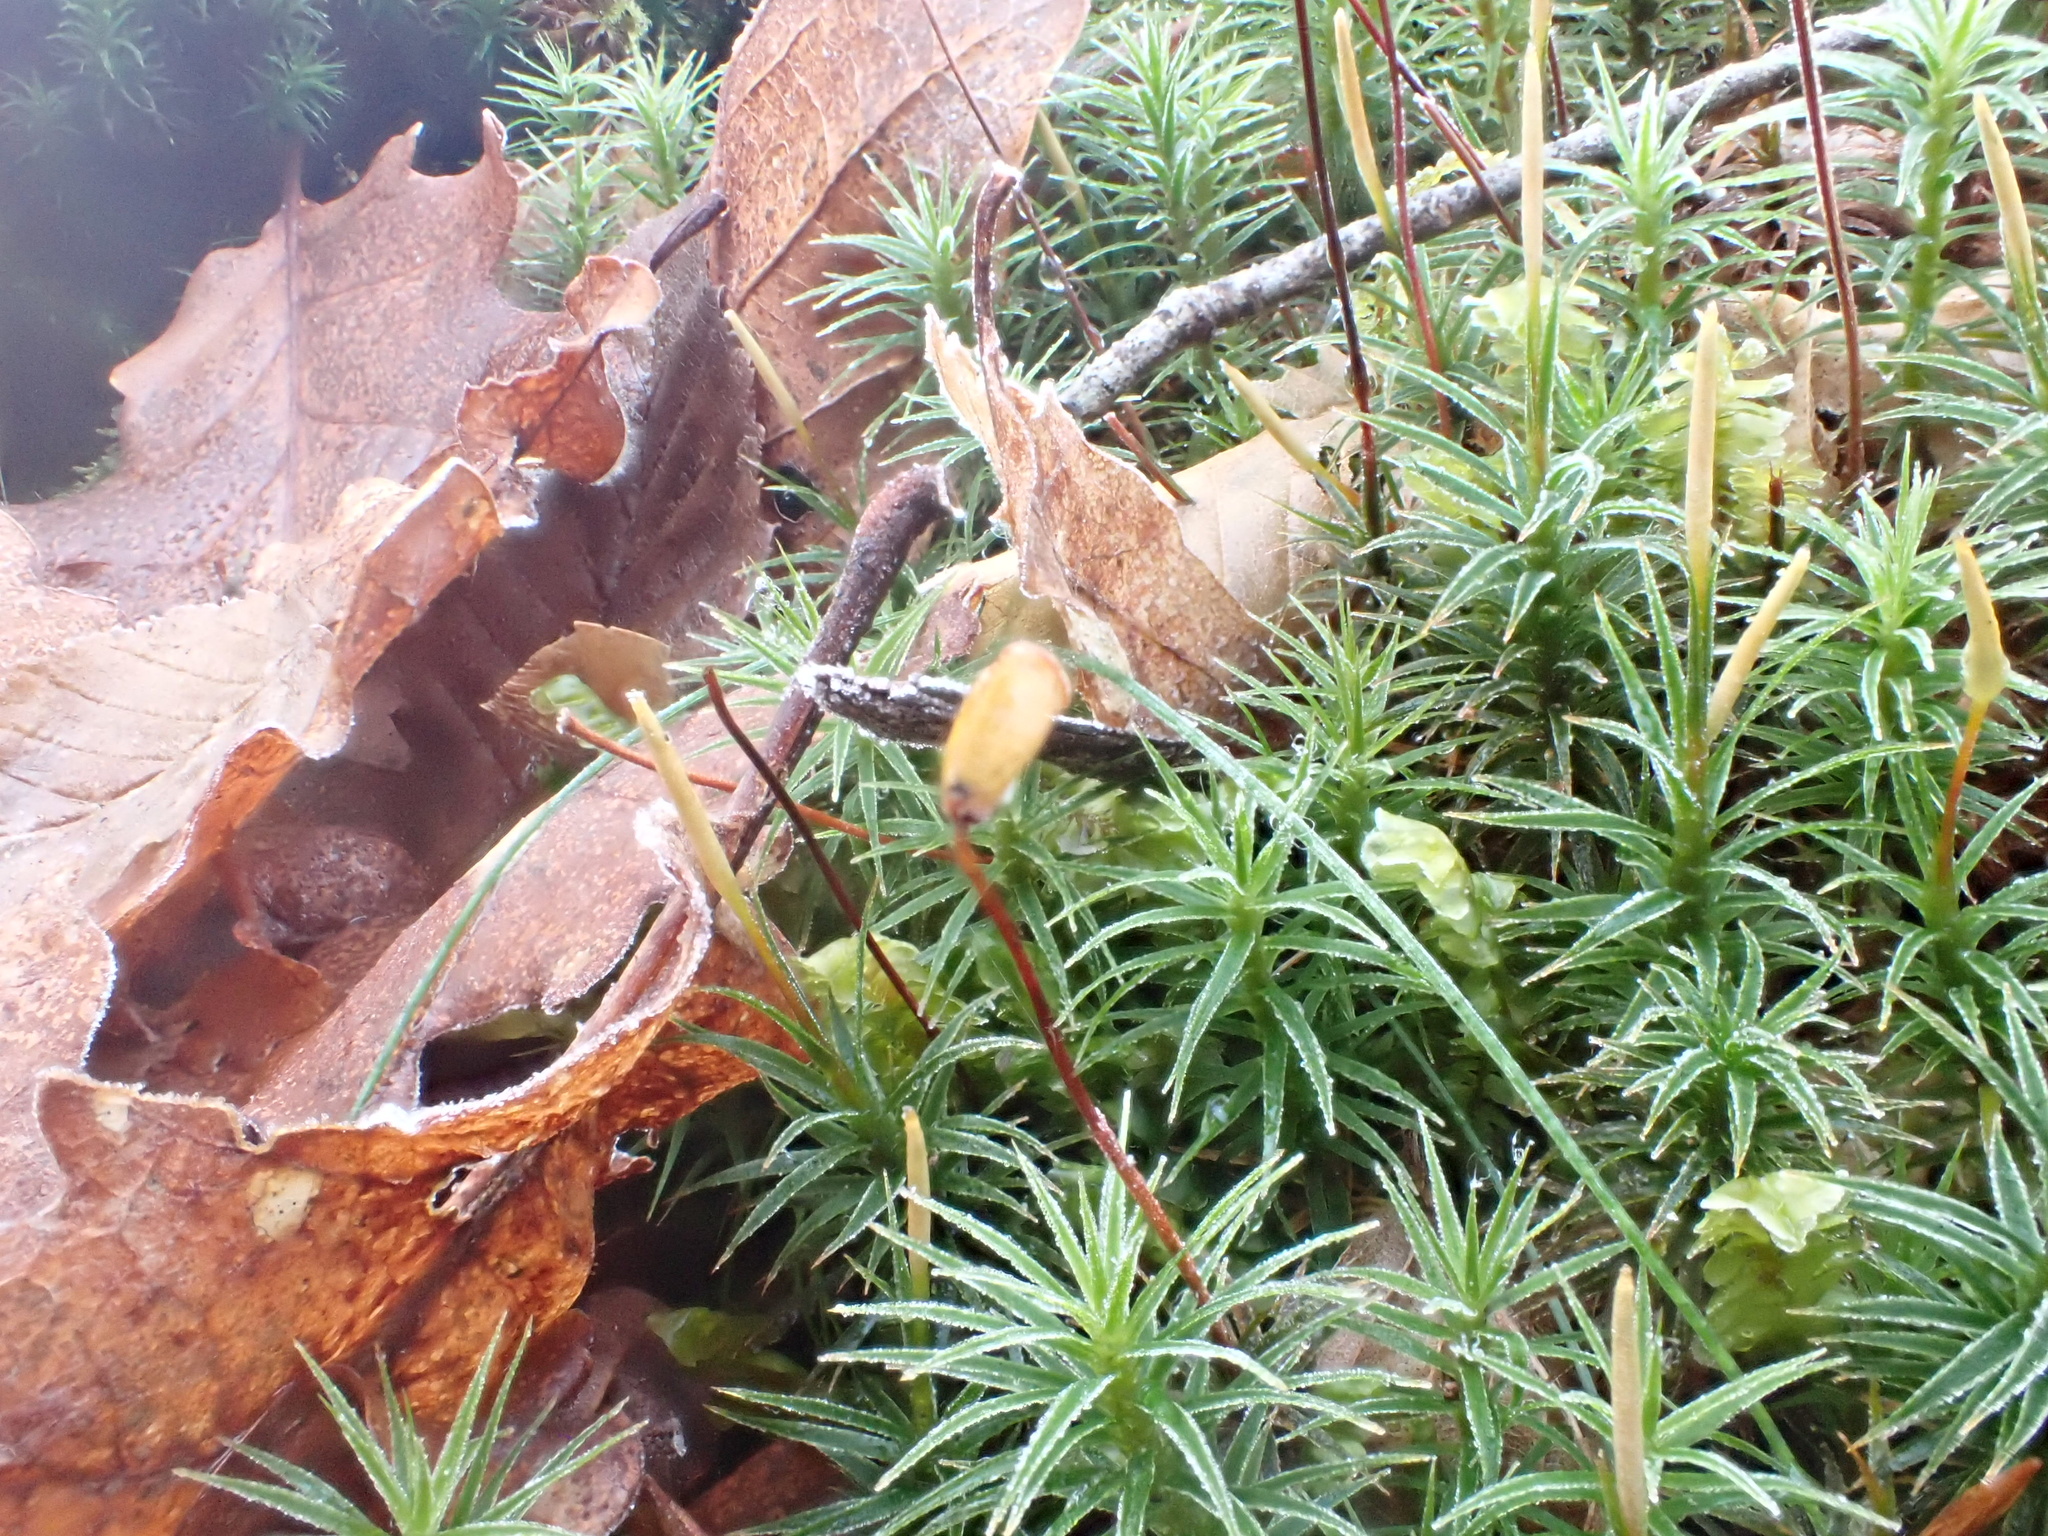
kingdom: Plantae
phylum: Bryophyta
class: Polytrichopsida
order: Polytrichales
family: Polytrichaceae
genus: Polytrichum
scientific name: Polytrichum formosum
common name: Bank haircap moss
